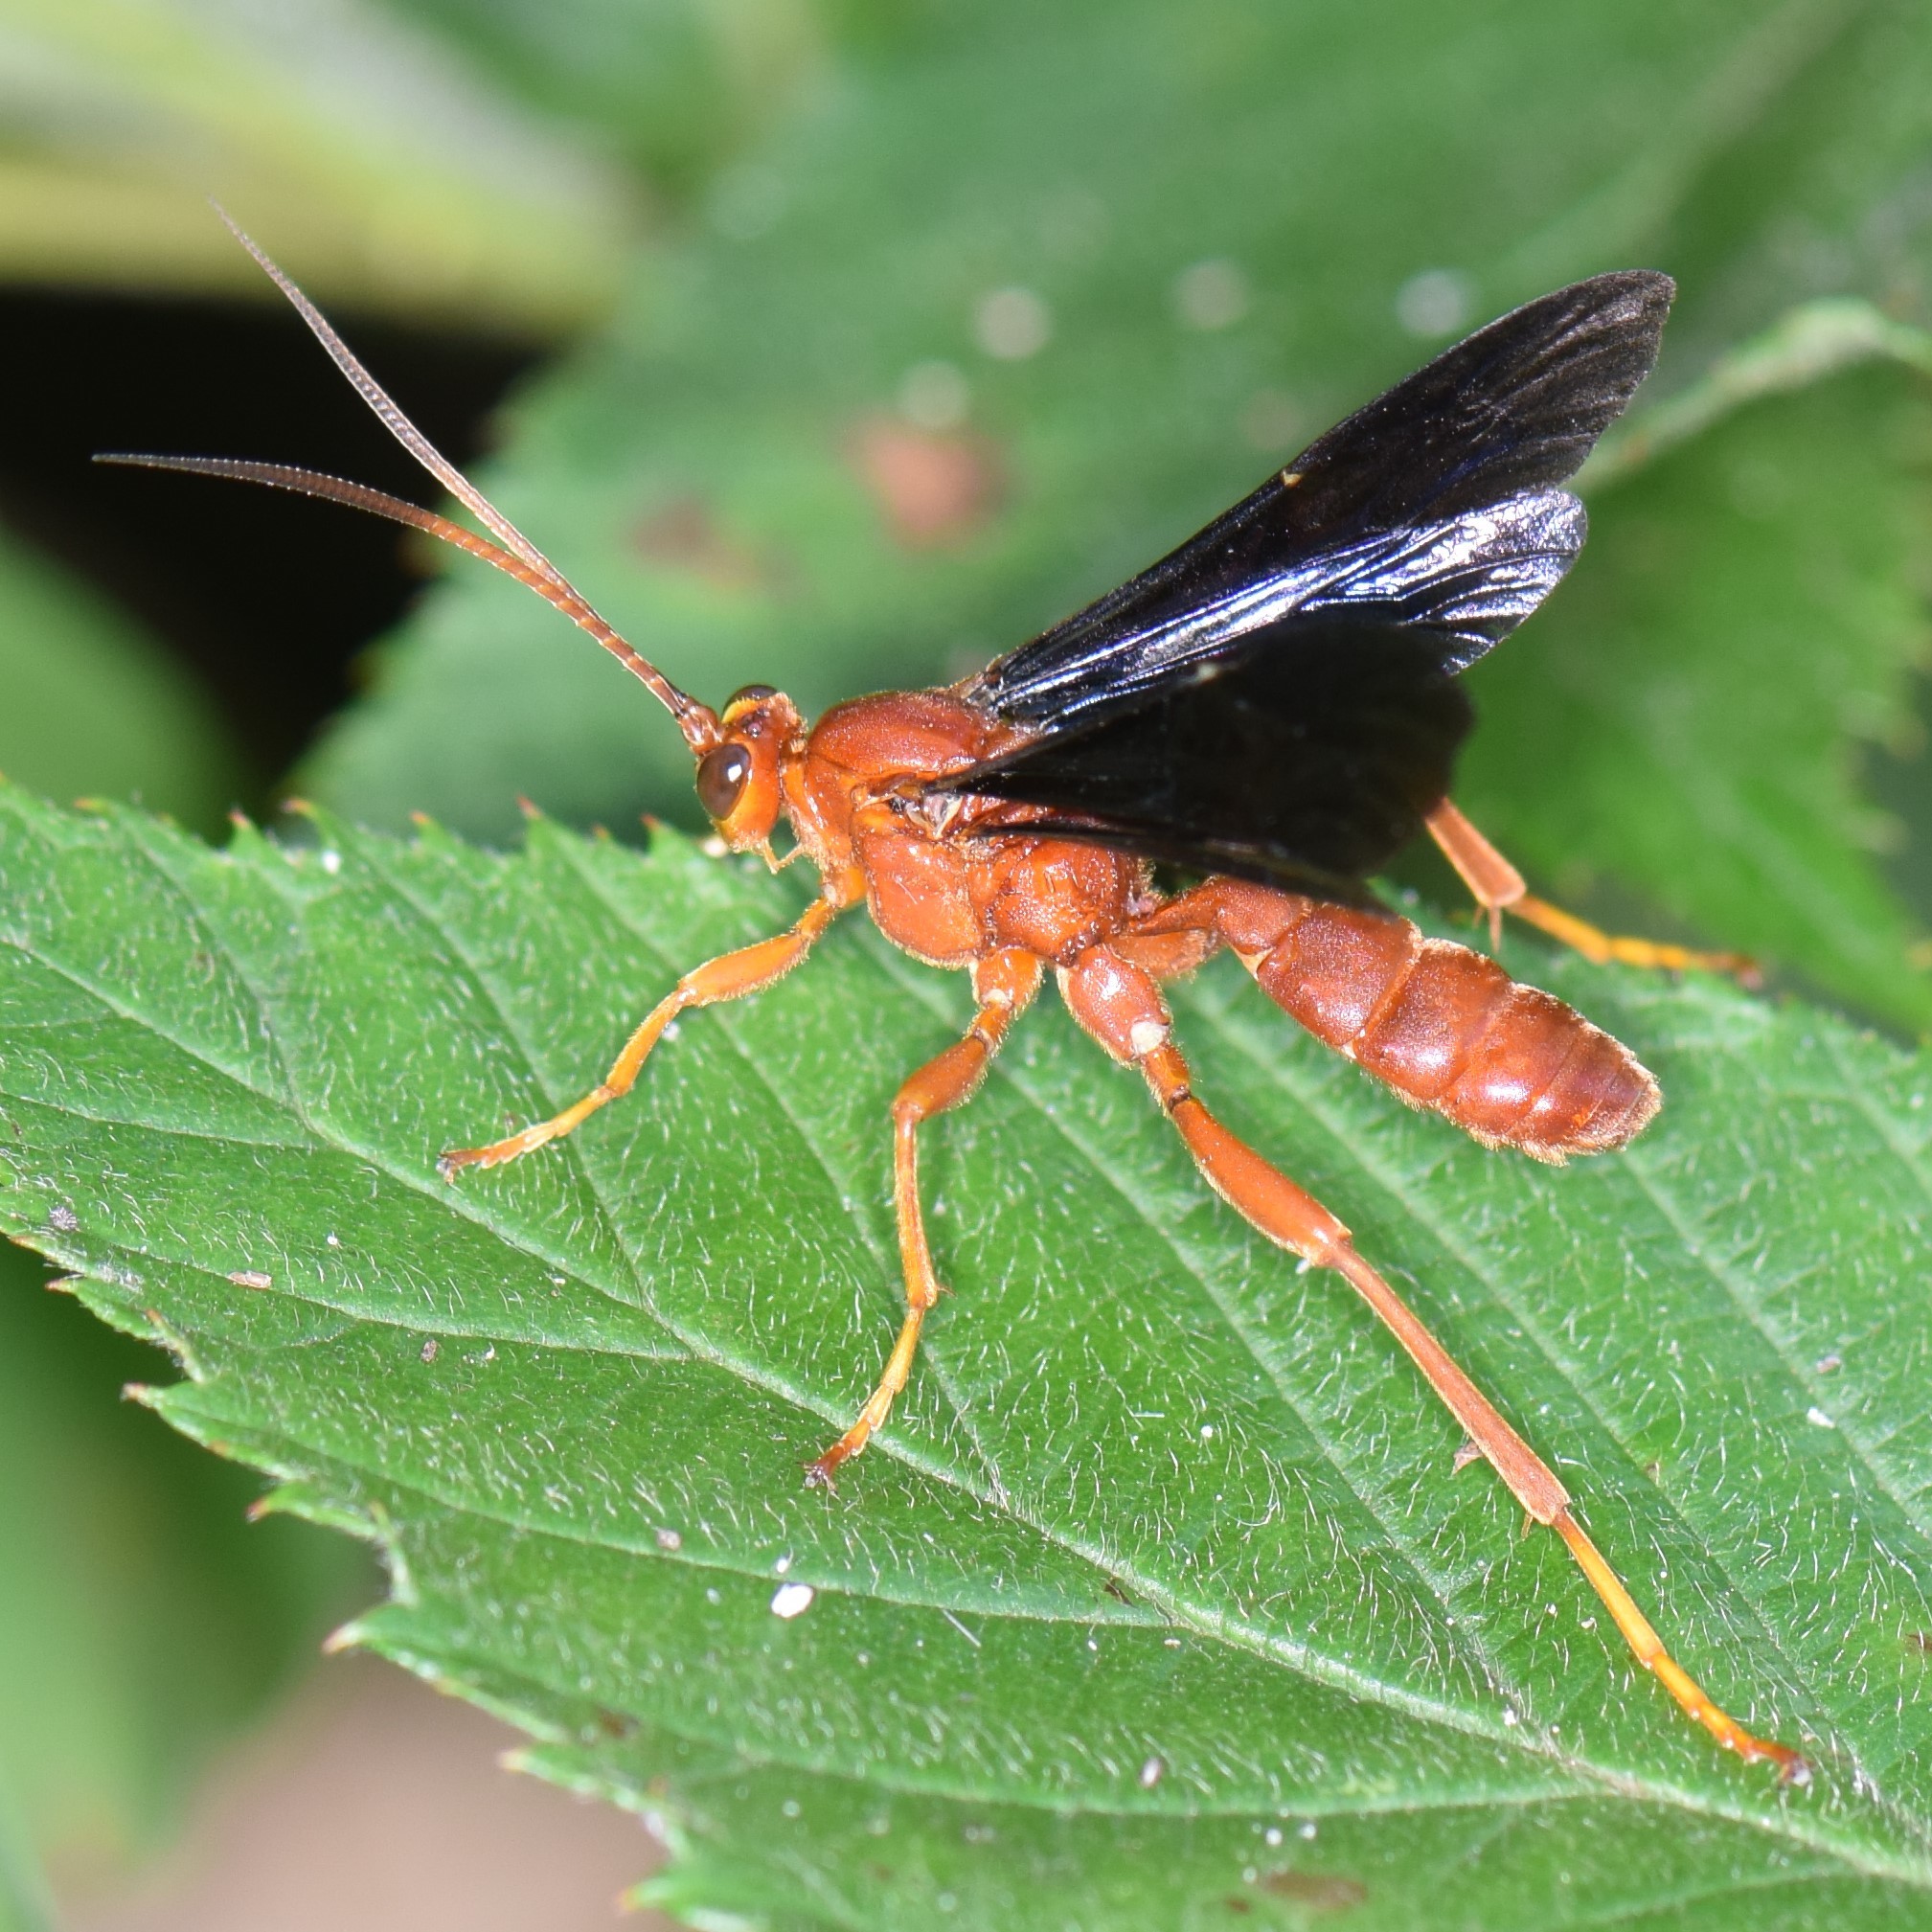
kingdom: Animalia
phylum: Arthropoda
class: Insecta
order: Hymenoptera
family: Ichneumonidae
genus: Trogus
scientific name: Trogus pennator
